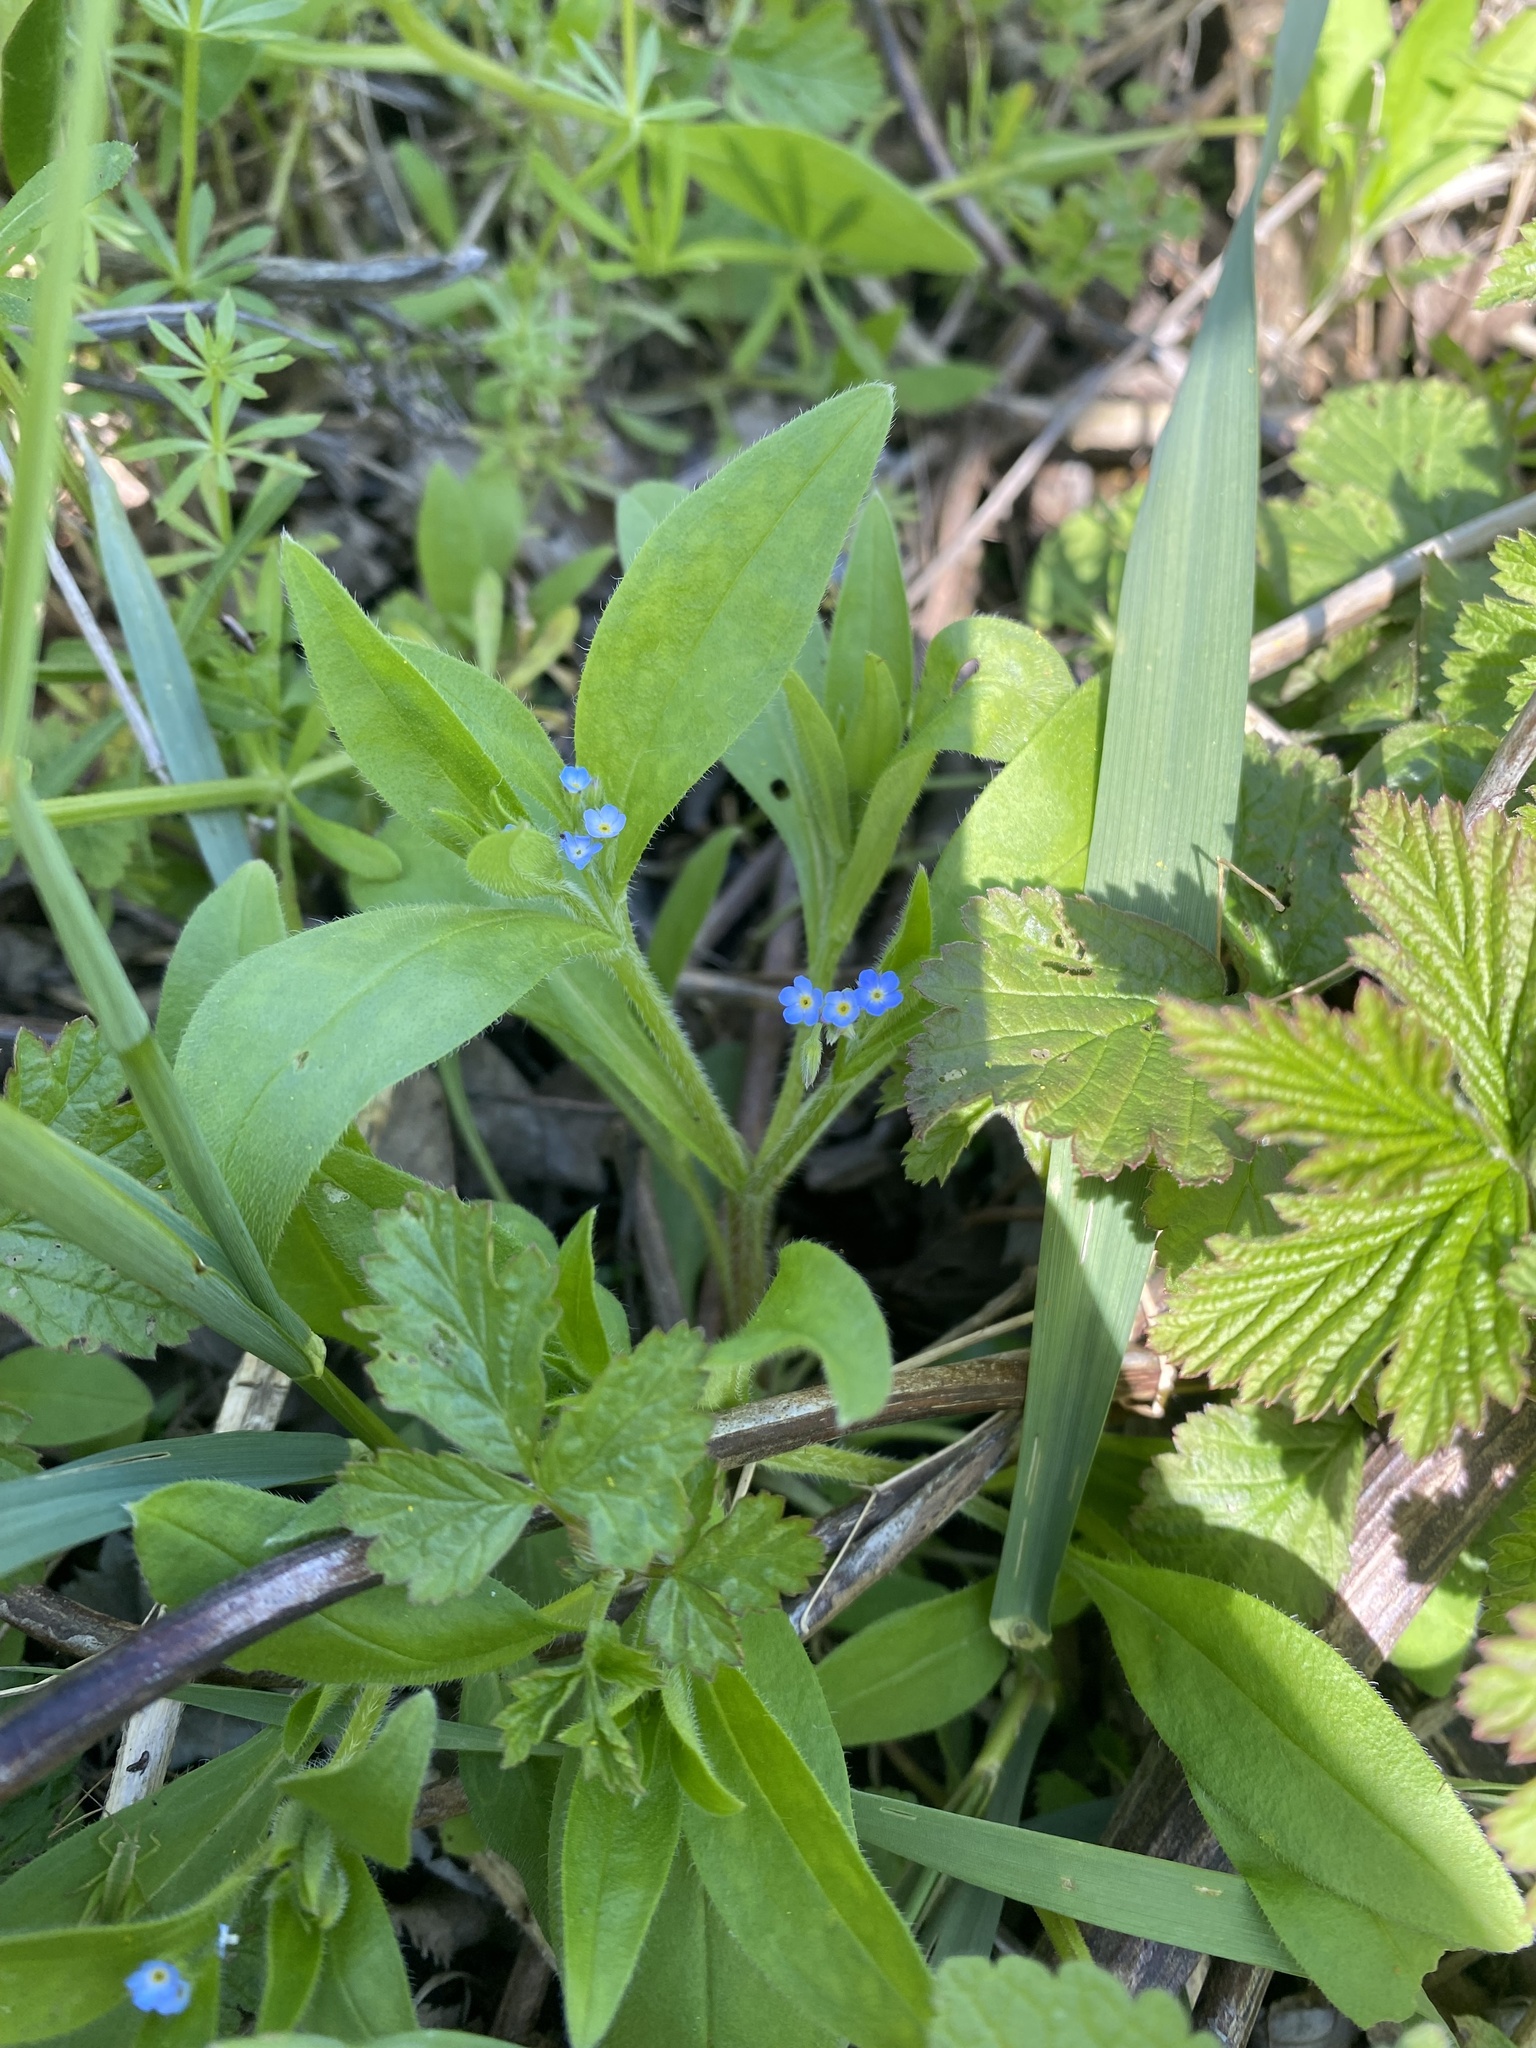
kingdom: Plantae
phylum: Tracheophyta
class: Magnoliopsida
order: Boraginales
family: Boraginaceae
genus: Myosotis
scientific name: Myosotis sparsiflora
